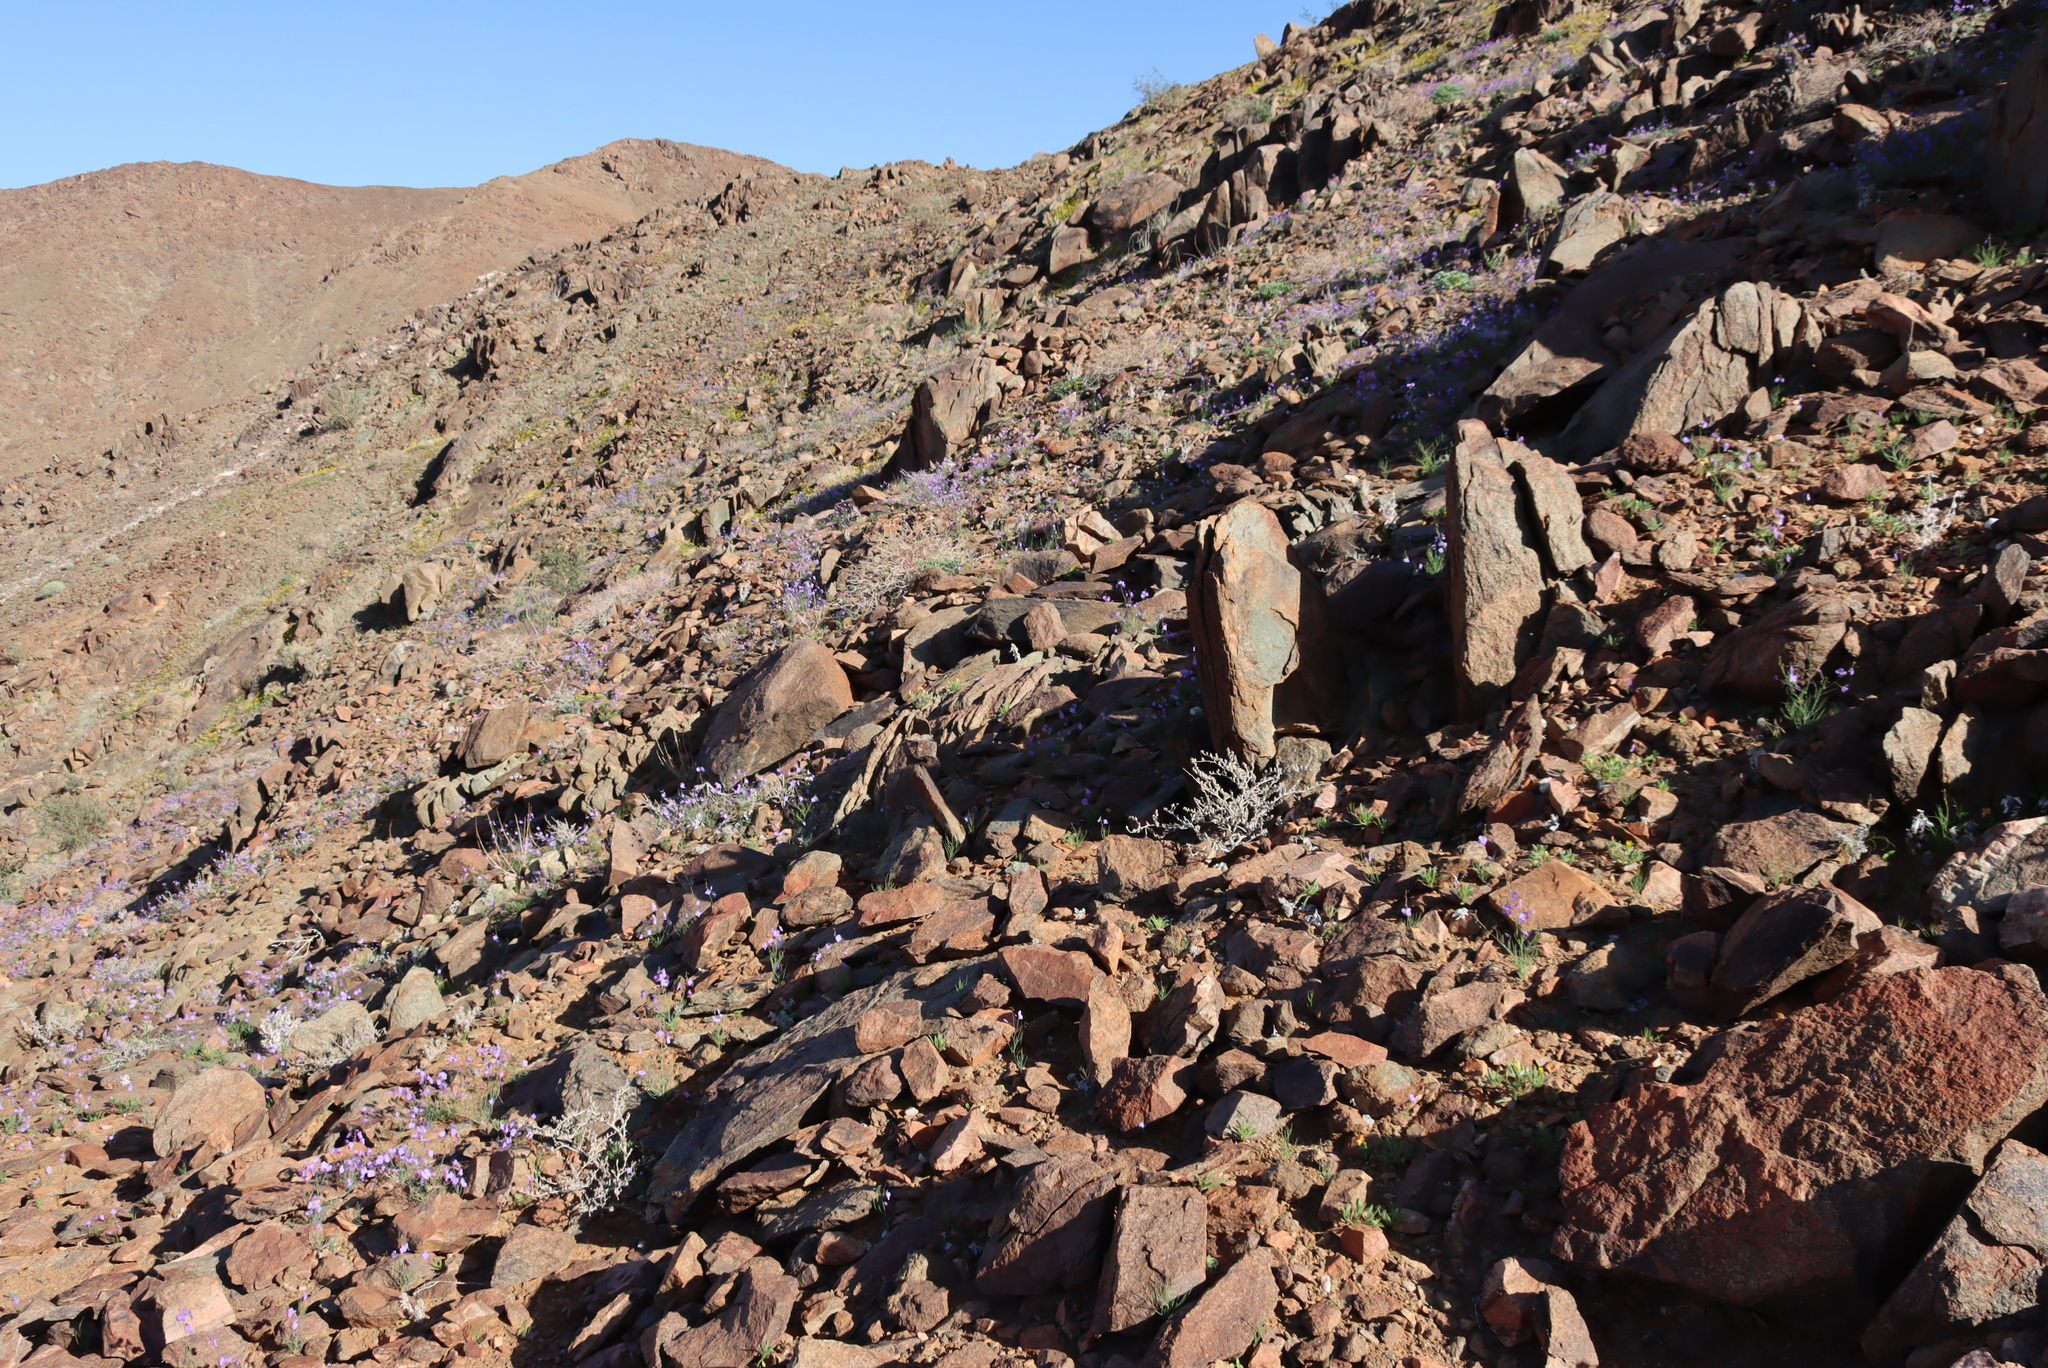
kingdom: Plantae
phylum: Tracheophyta
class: Magnoliopsida
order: Brassicales
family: Brassicaceae
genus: Heliophila
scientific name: Heliophila trifurca
